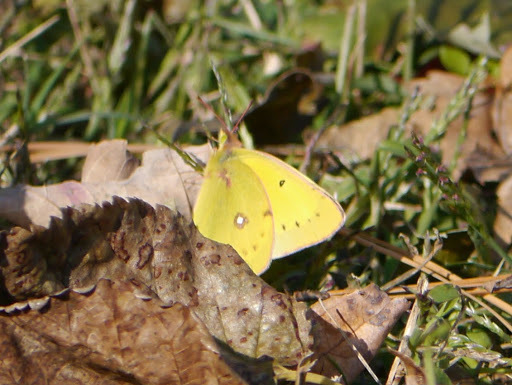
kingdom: Animalia
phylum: Arthropoda
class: Insecta
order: Lepidoptera
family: Pieridae
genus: Colias
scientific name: Colias eurytheme
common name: Alfalfa butterfly
